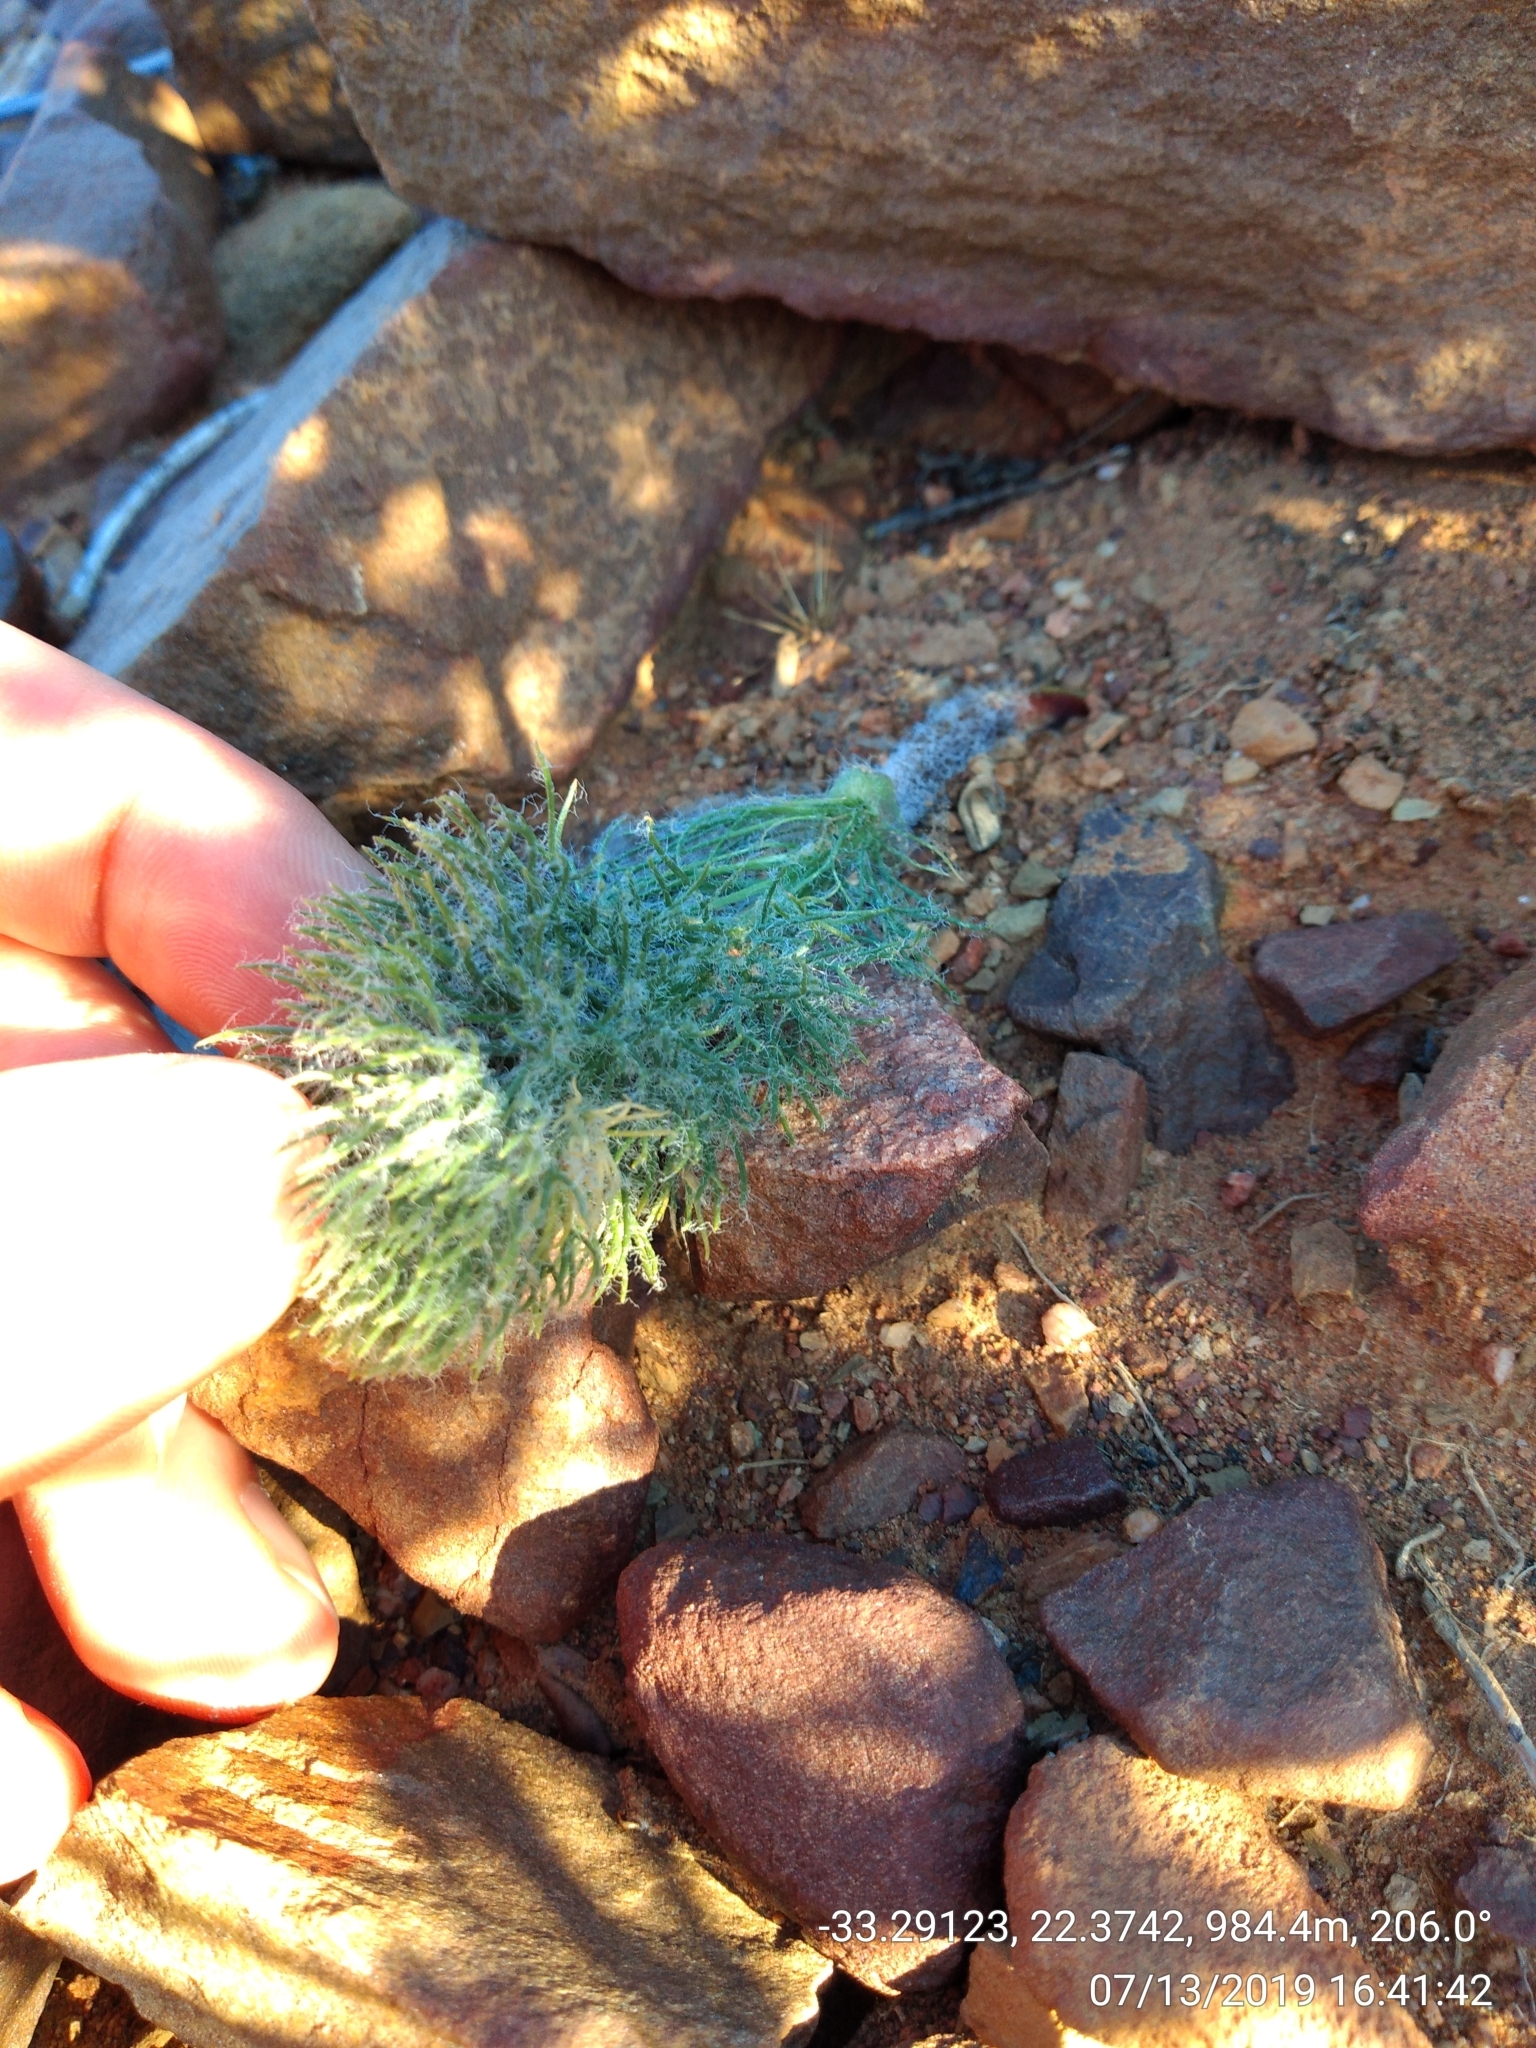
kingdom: Plantae
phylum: Tracheophyta
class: Liliopsida
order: Asparagales
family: Asparagaceae
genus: Eriospermum
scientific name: Eriospermum paradoxum
